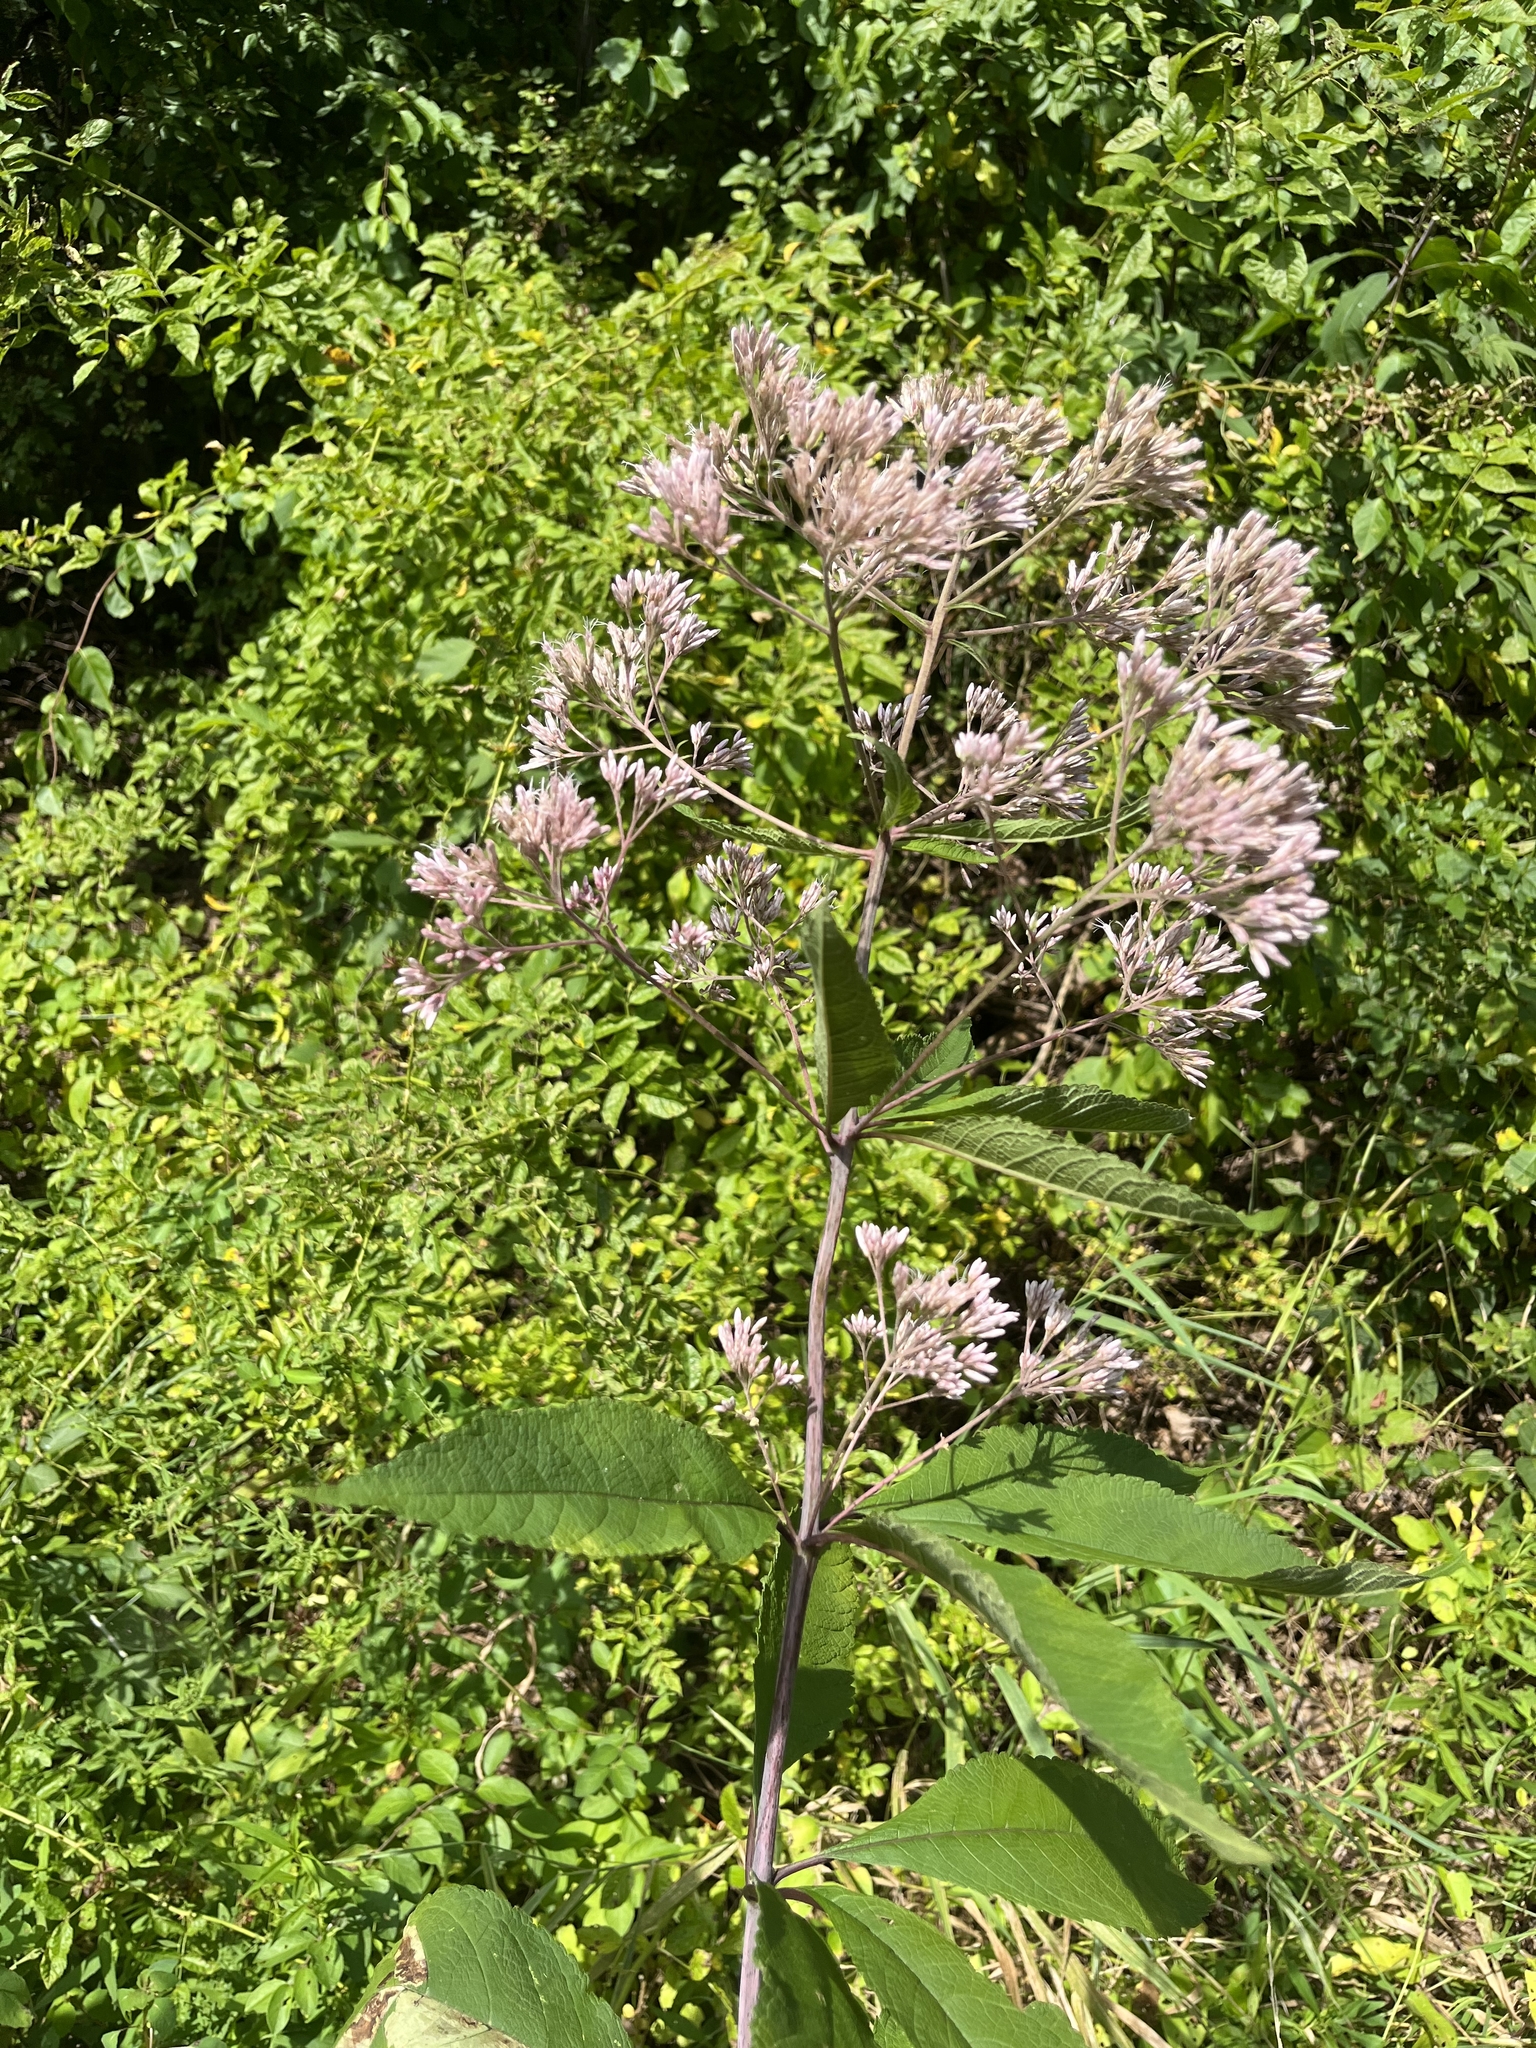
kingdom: Plantae
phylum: Tracheophyta
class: Magnoliopsida
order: Asterales
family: Asteraceae
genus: Eutrochium
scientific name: Eutrochium fistulosum
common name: Trumpetweed
